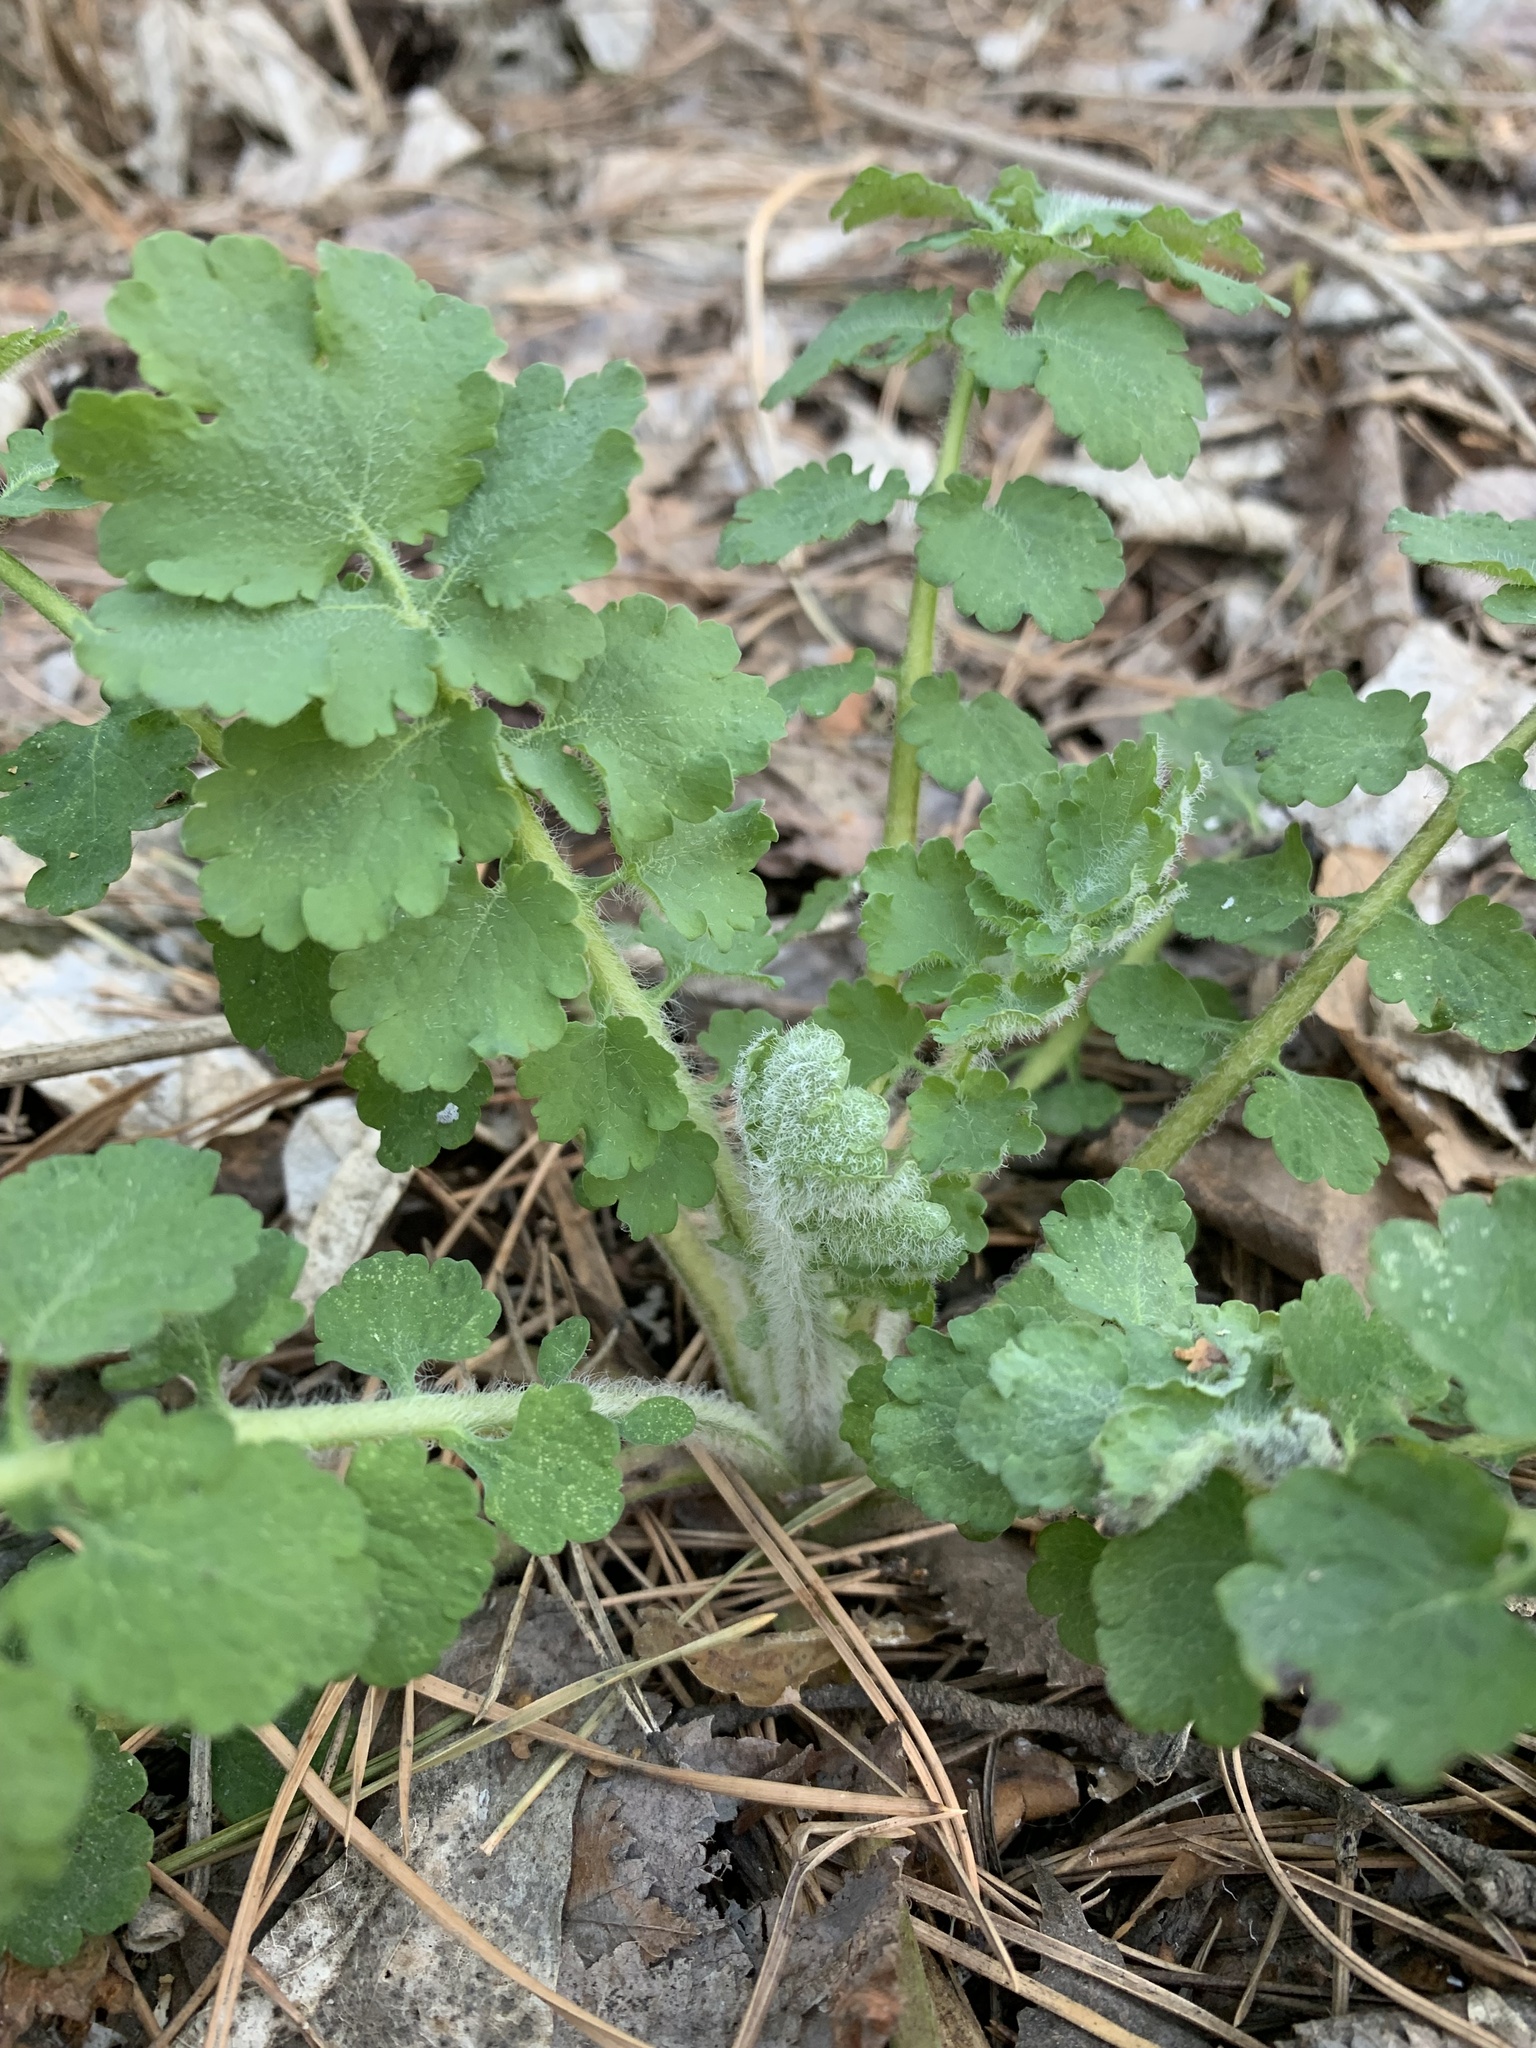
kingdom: Plantae
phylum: Tracheophyta
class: Magnoliopsida
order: Ranunculales
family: Papaveraceae
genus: Chelidonium
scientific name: Chelidonium majus
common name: Greater celandine
